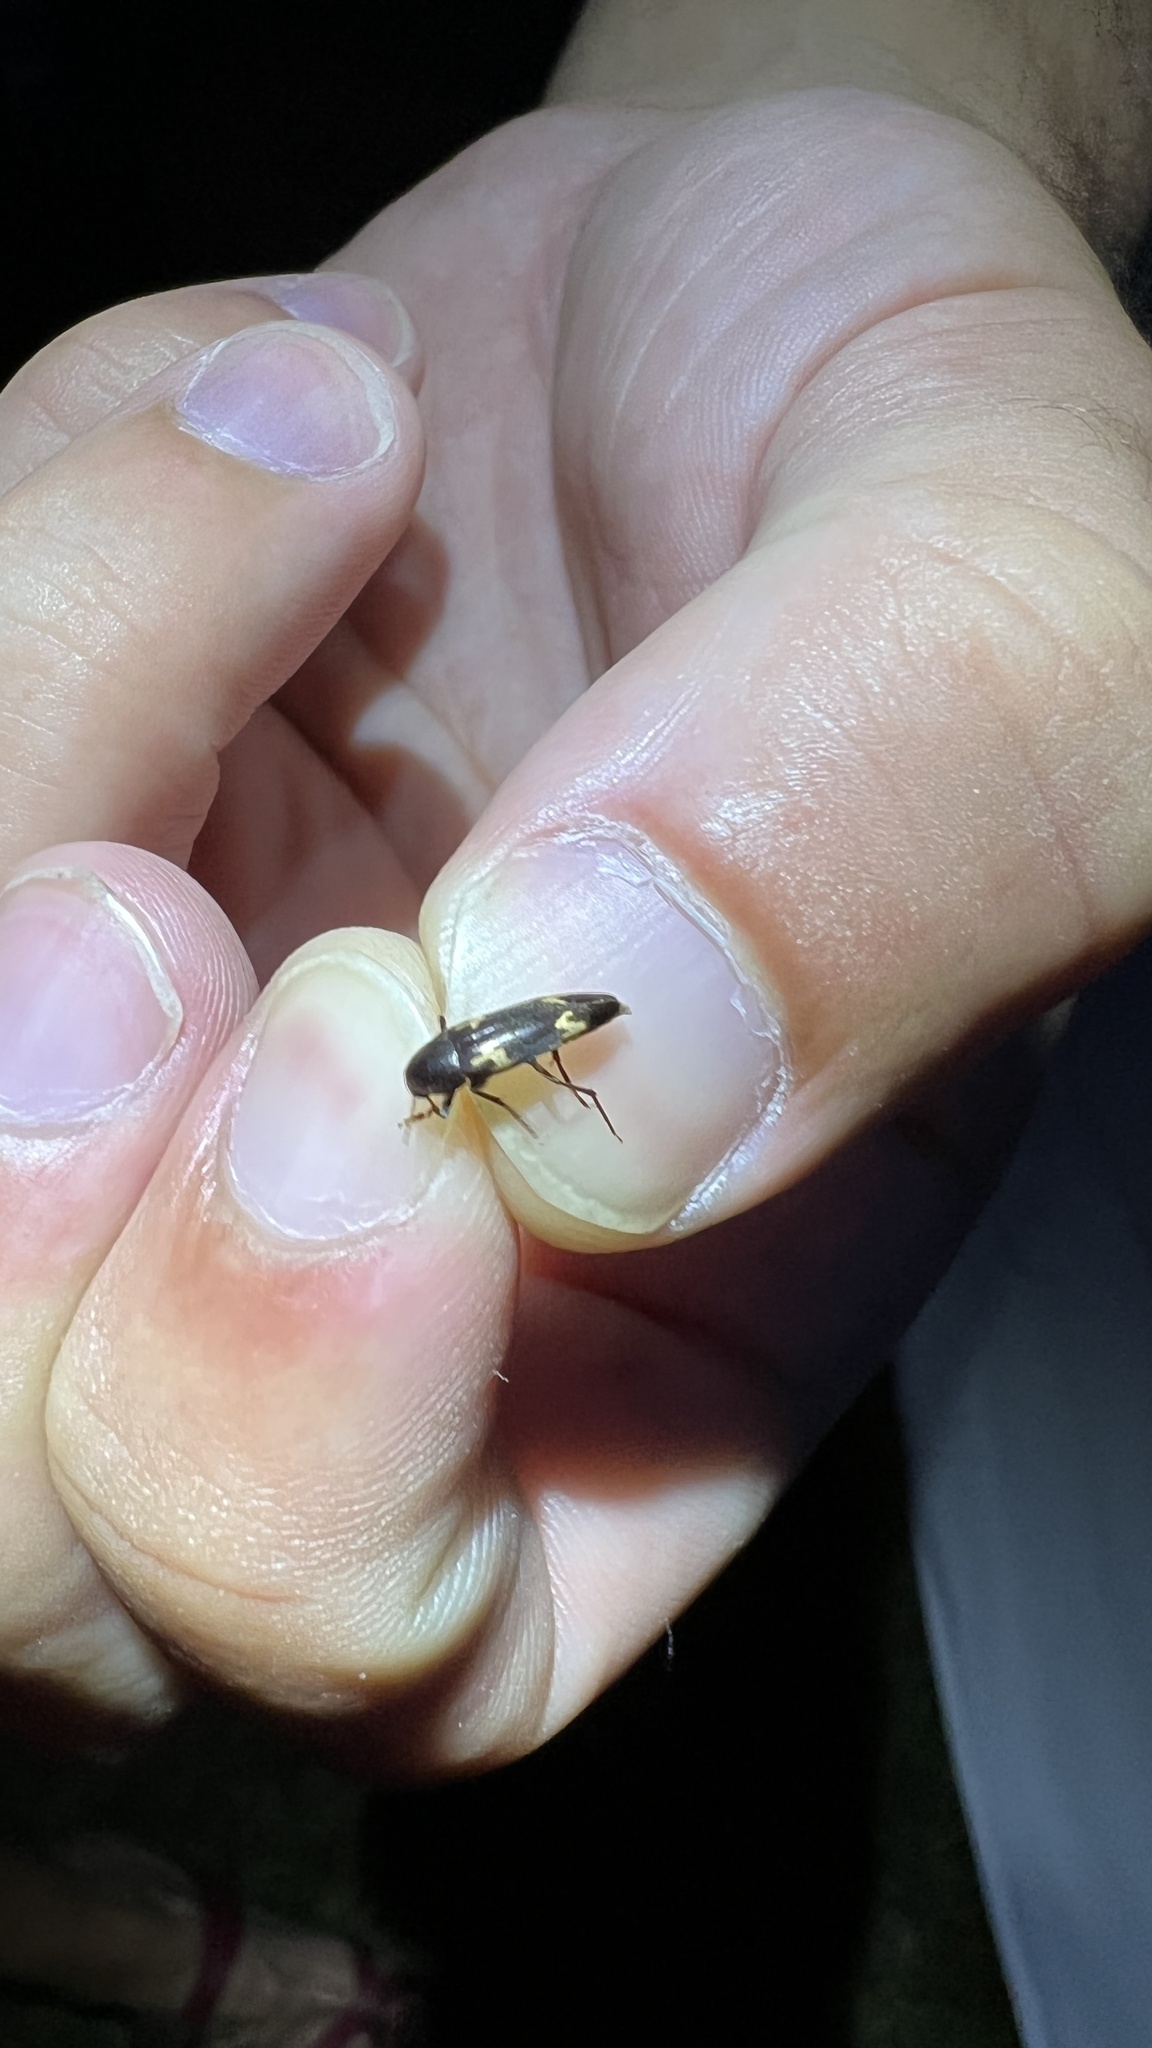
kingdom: Animalia
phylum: Arthropoda
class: Insecta
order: Coleoptera
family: Melandryidae
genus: Dircaea
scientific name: Dircaea liturata
